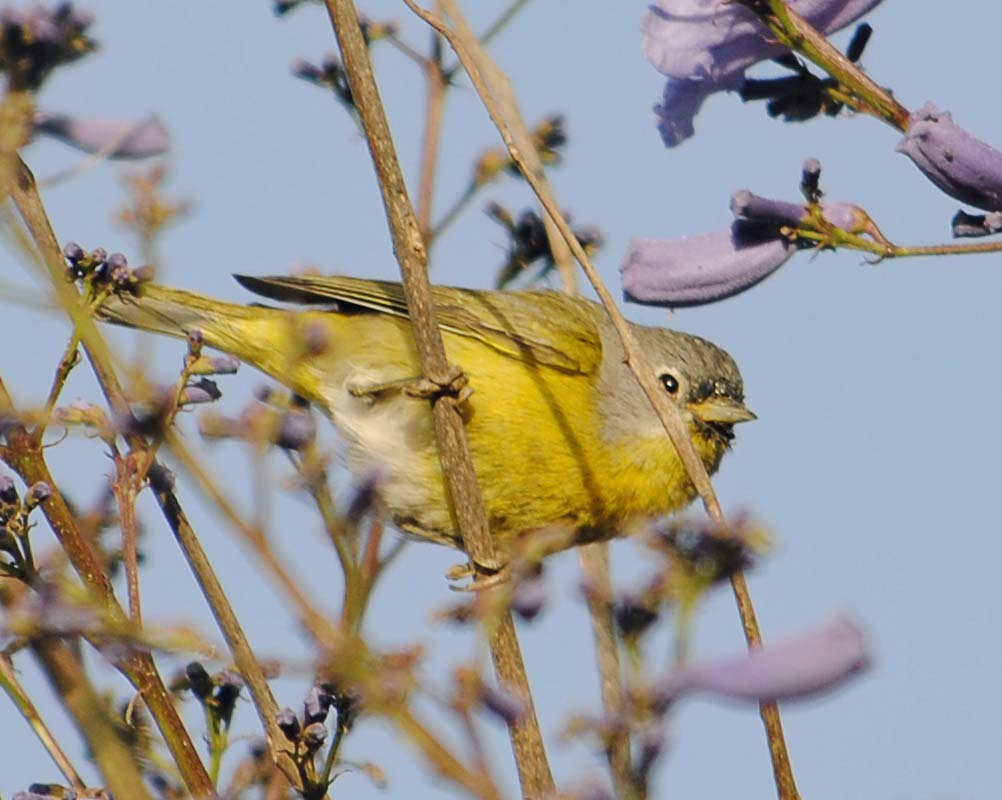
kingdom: Animalia
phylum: Chordata
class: Aves
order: Passeriformes
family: Parulidae
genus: Leiothlypis
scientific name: Leiothlypis ruficapilla
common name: Nashville warbler
